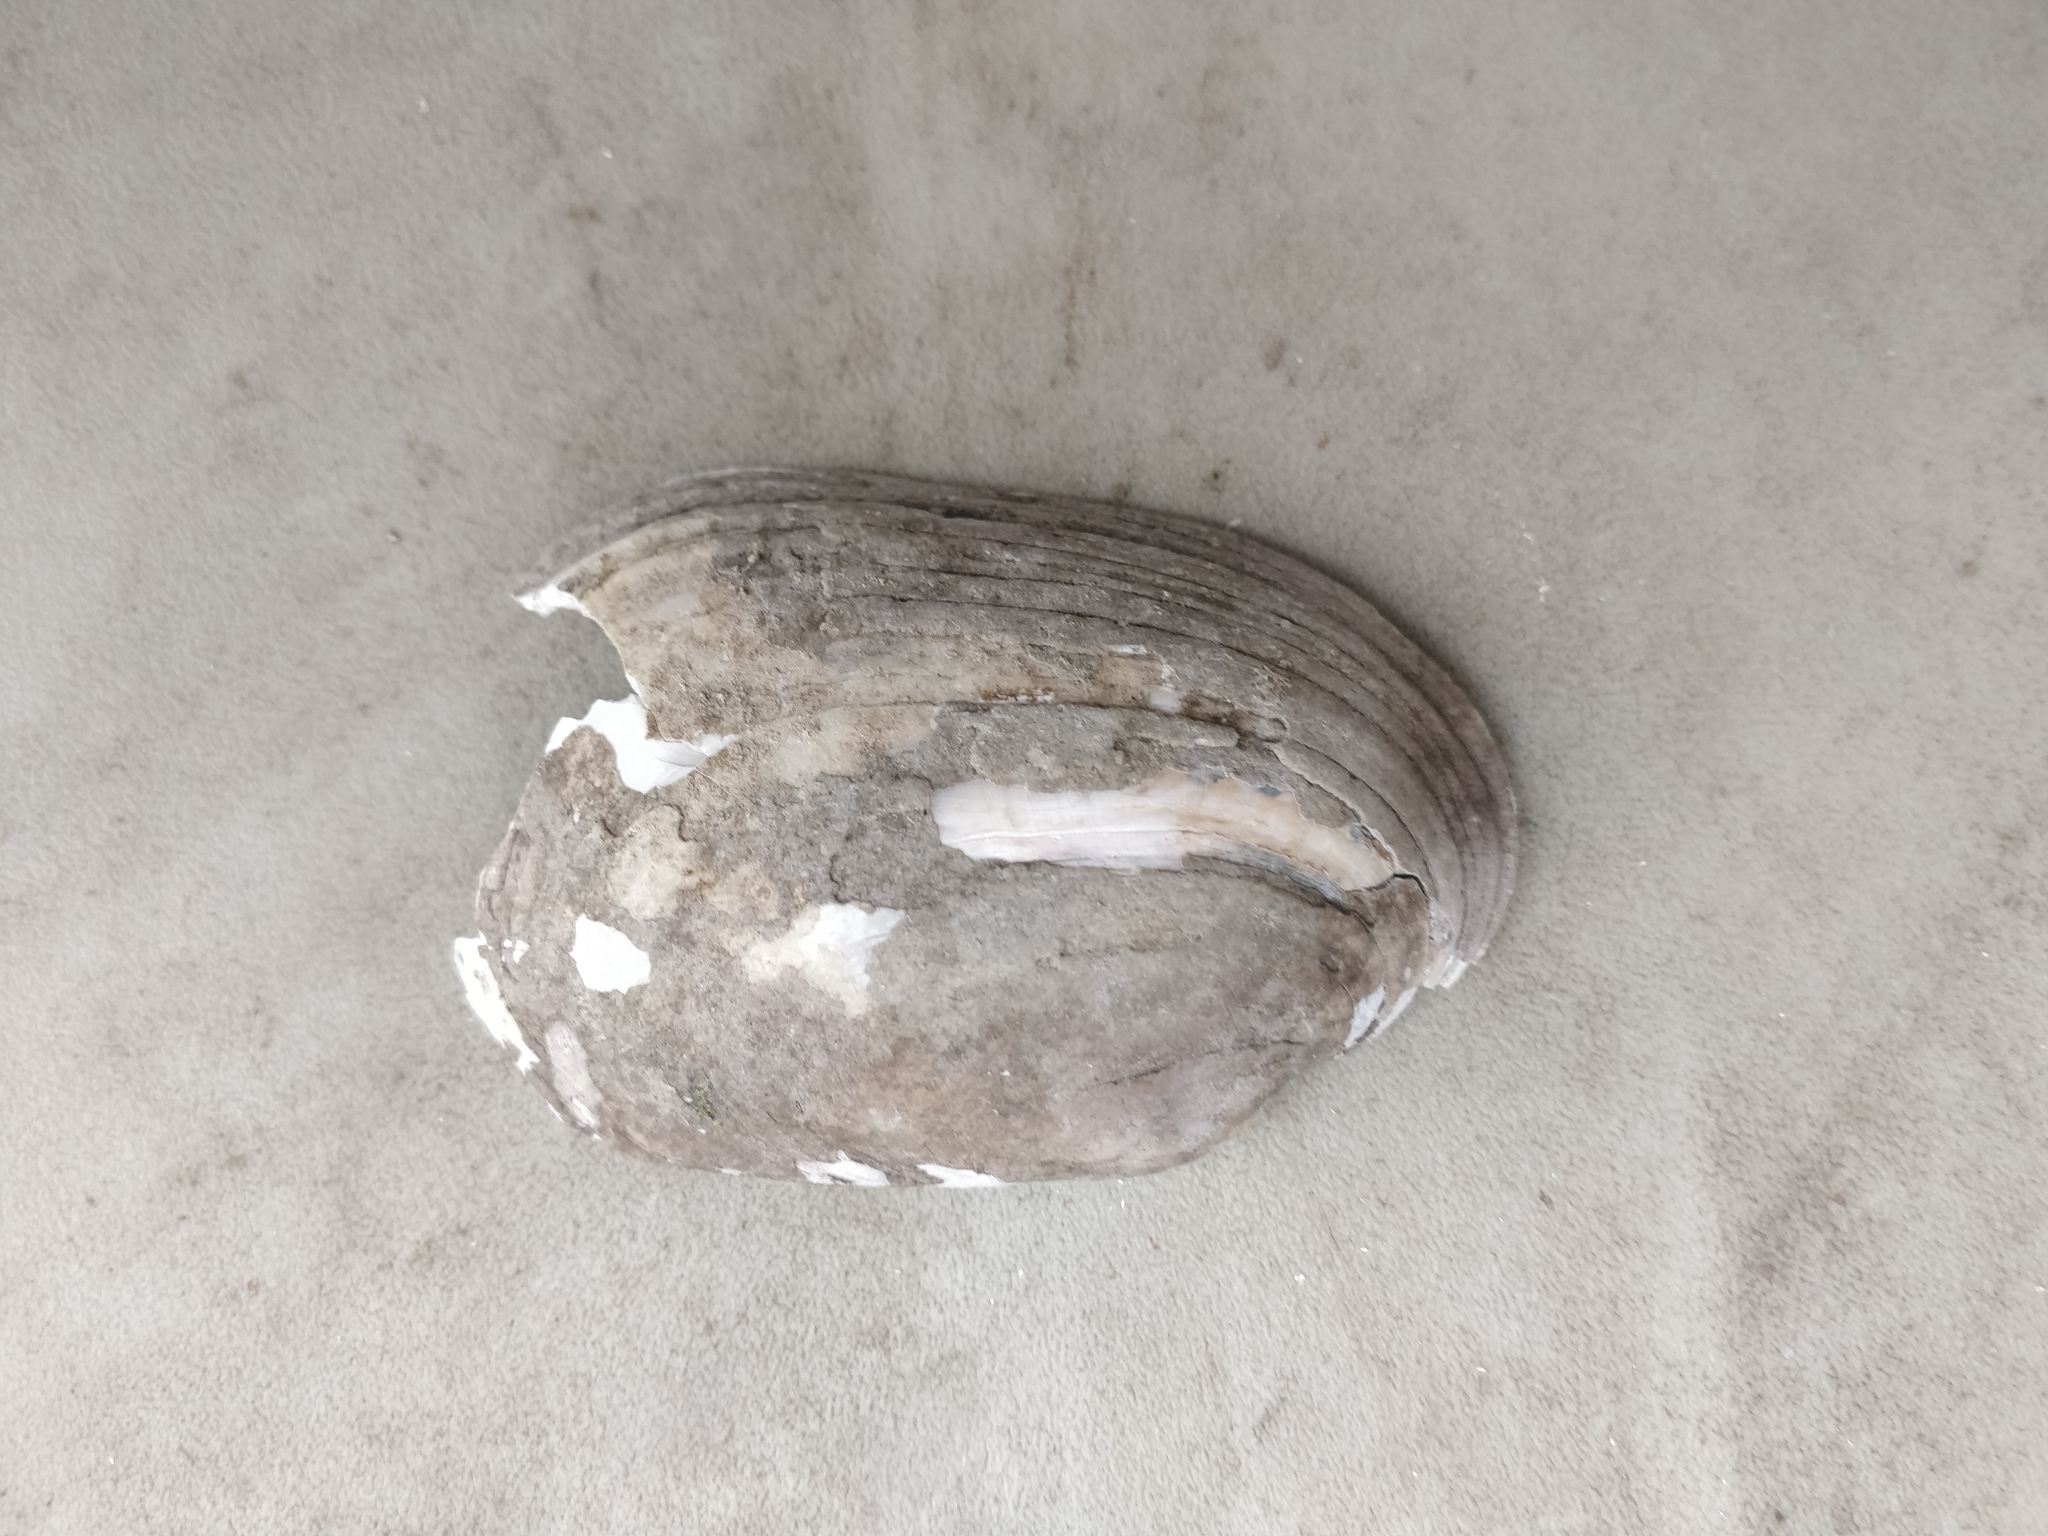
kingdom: Animalia
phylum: Mollusca
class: Bivalvia
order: Unionida
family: Unionidae
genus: Lampsilis
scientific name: Lampsilis siliquoidea
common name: Fatmucket
